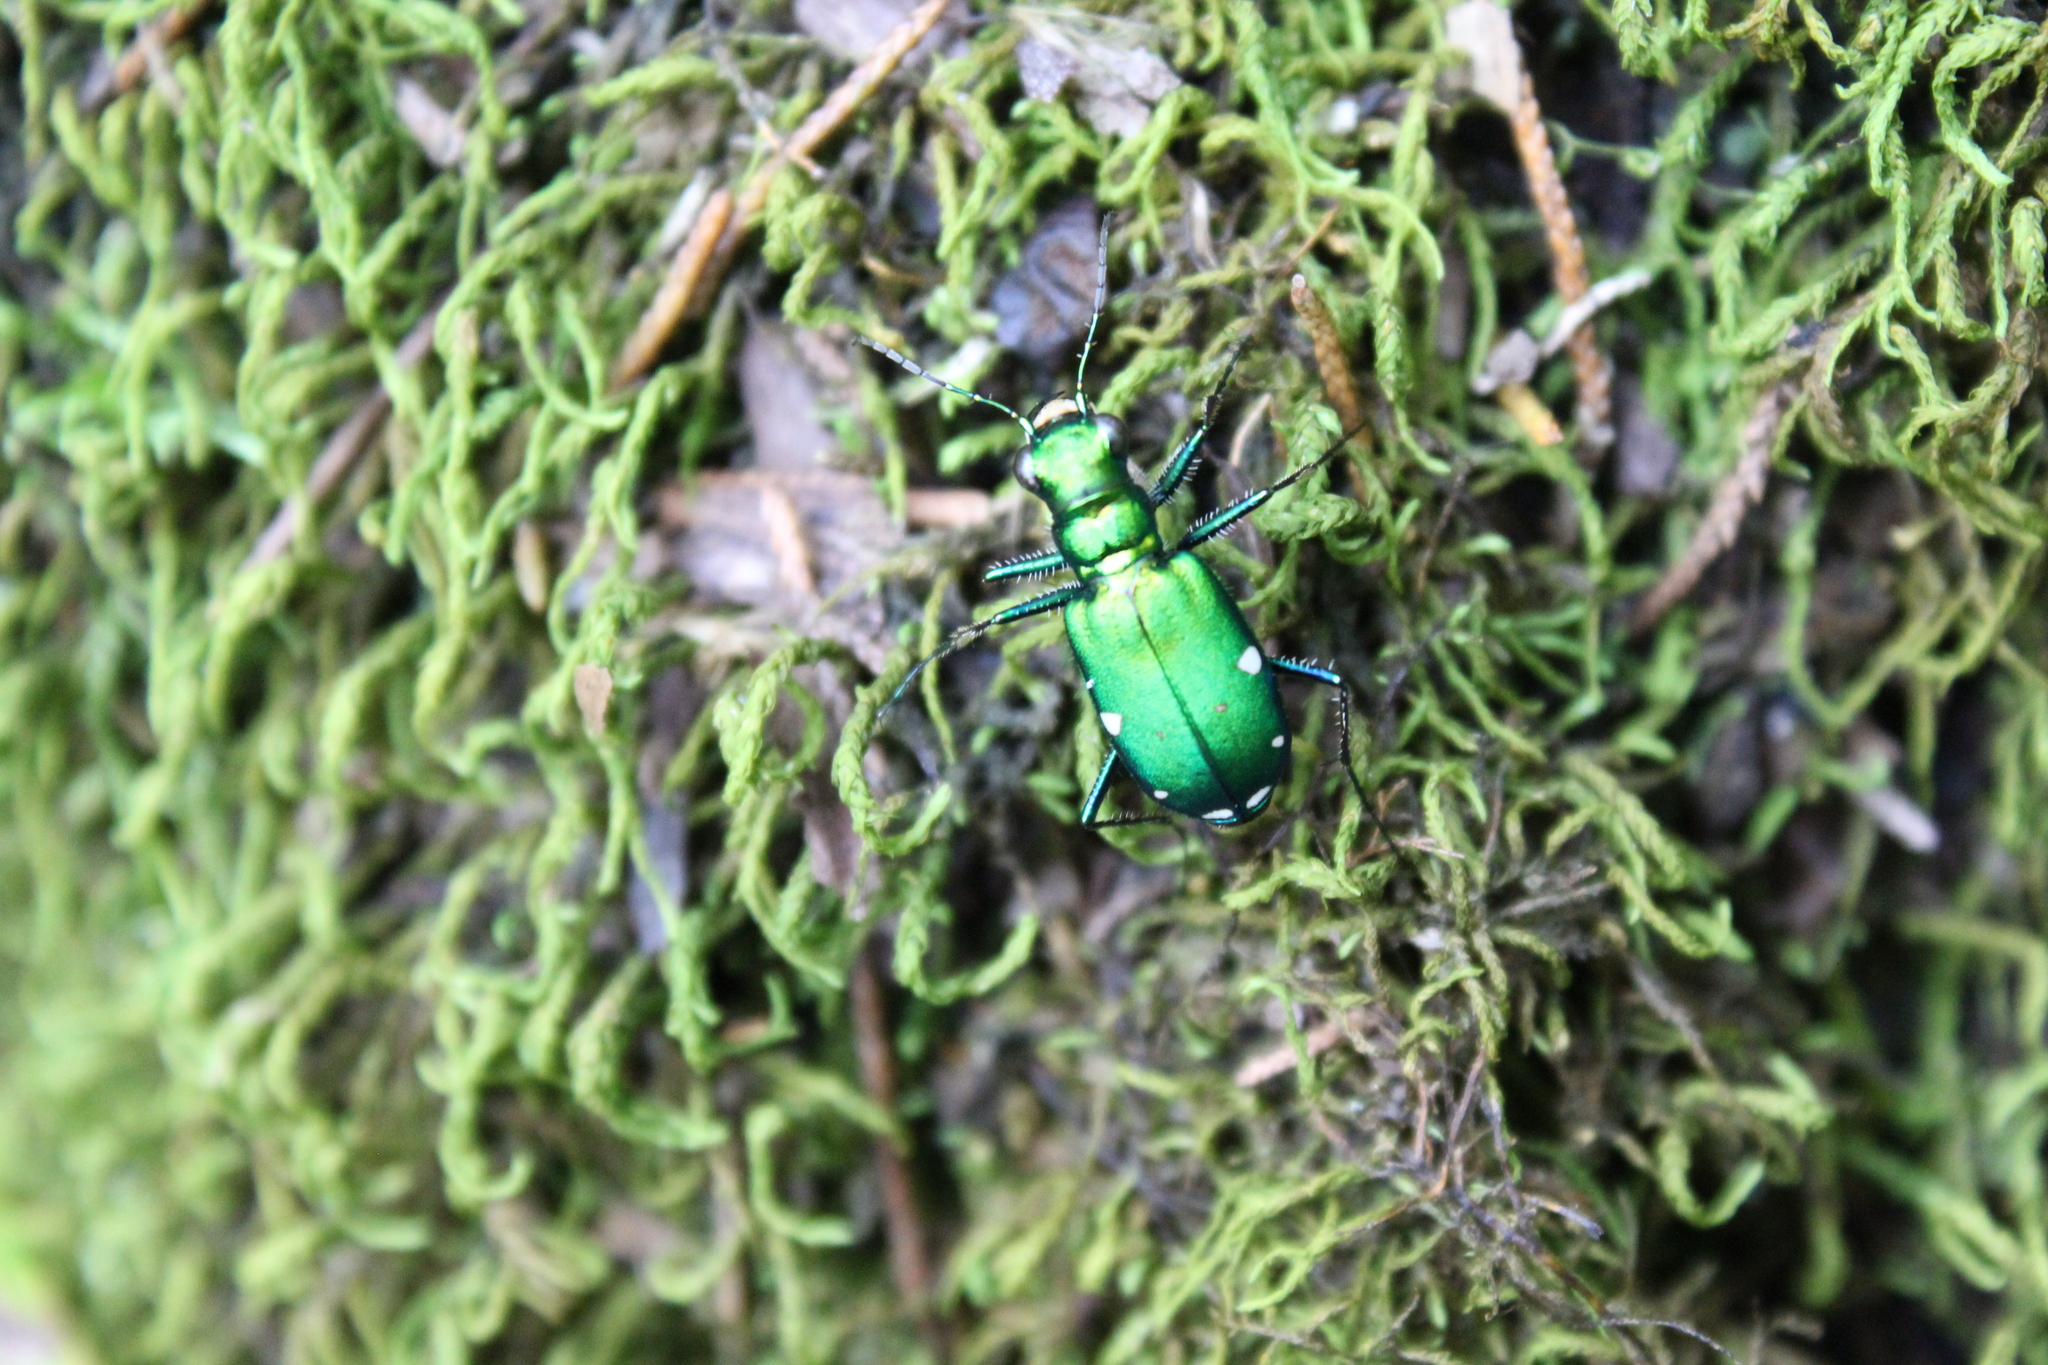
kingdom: Animalia
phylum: Arthropoda
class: Insecta
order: Coleoptera
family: Carabidae
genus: Cicindela
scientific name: Cicindela sexguttata
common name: Six-spotted tiger beetle
